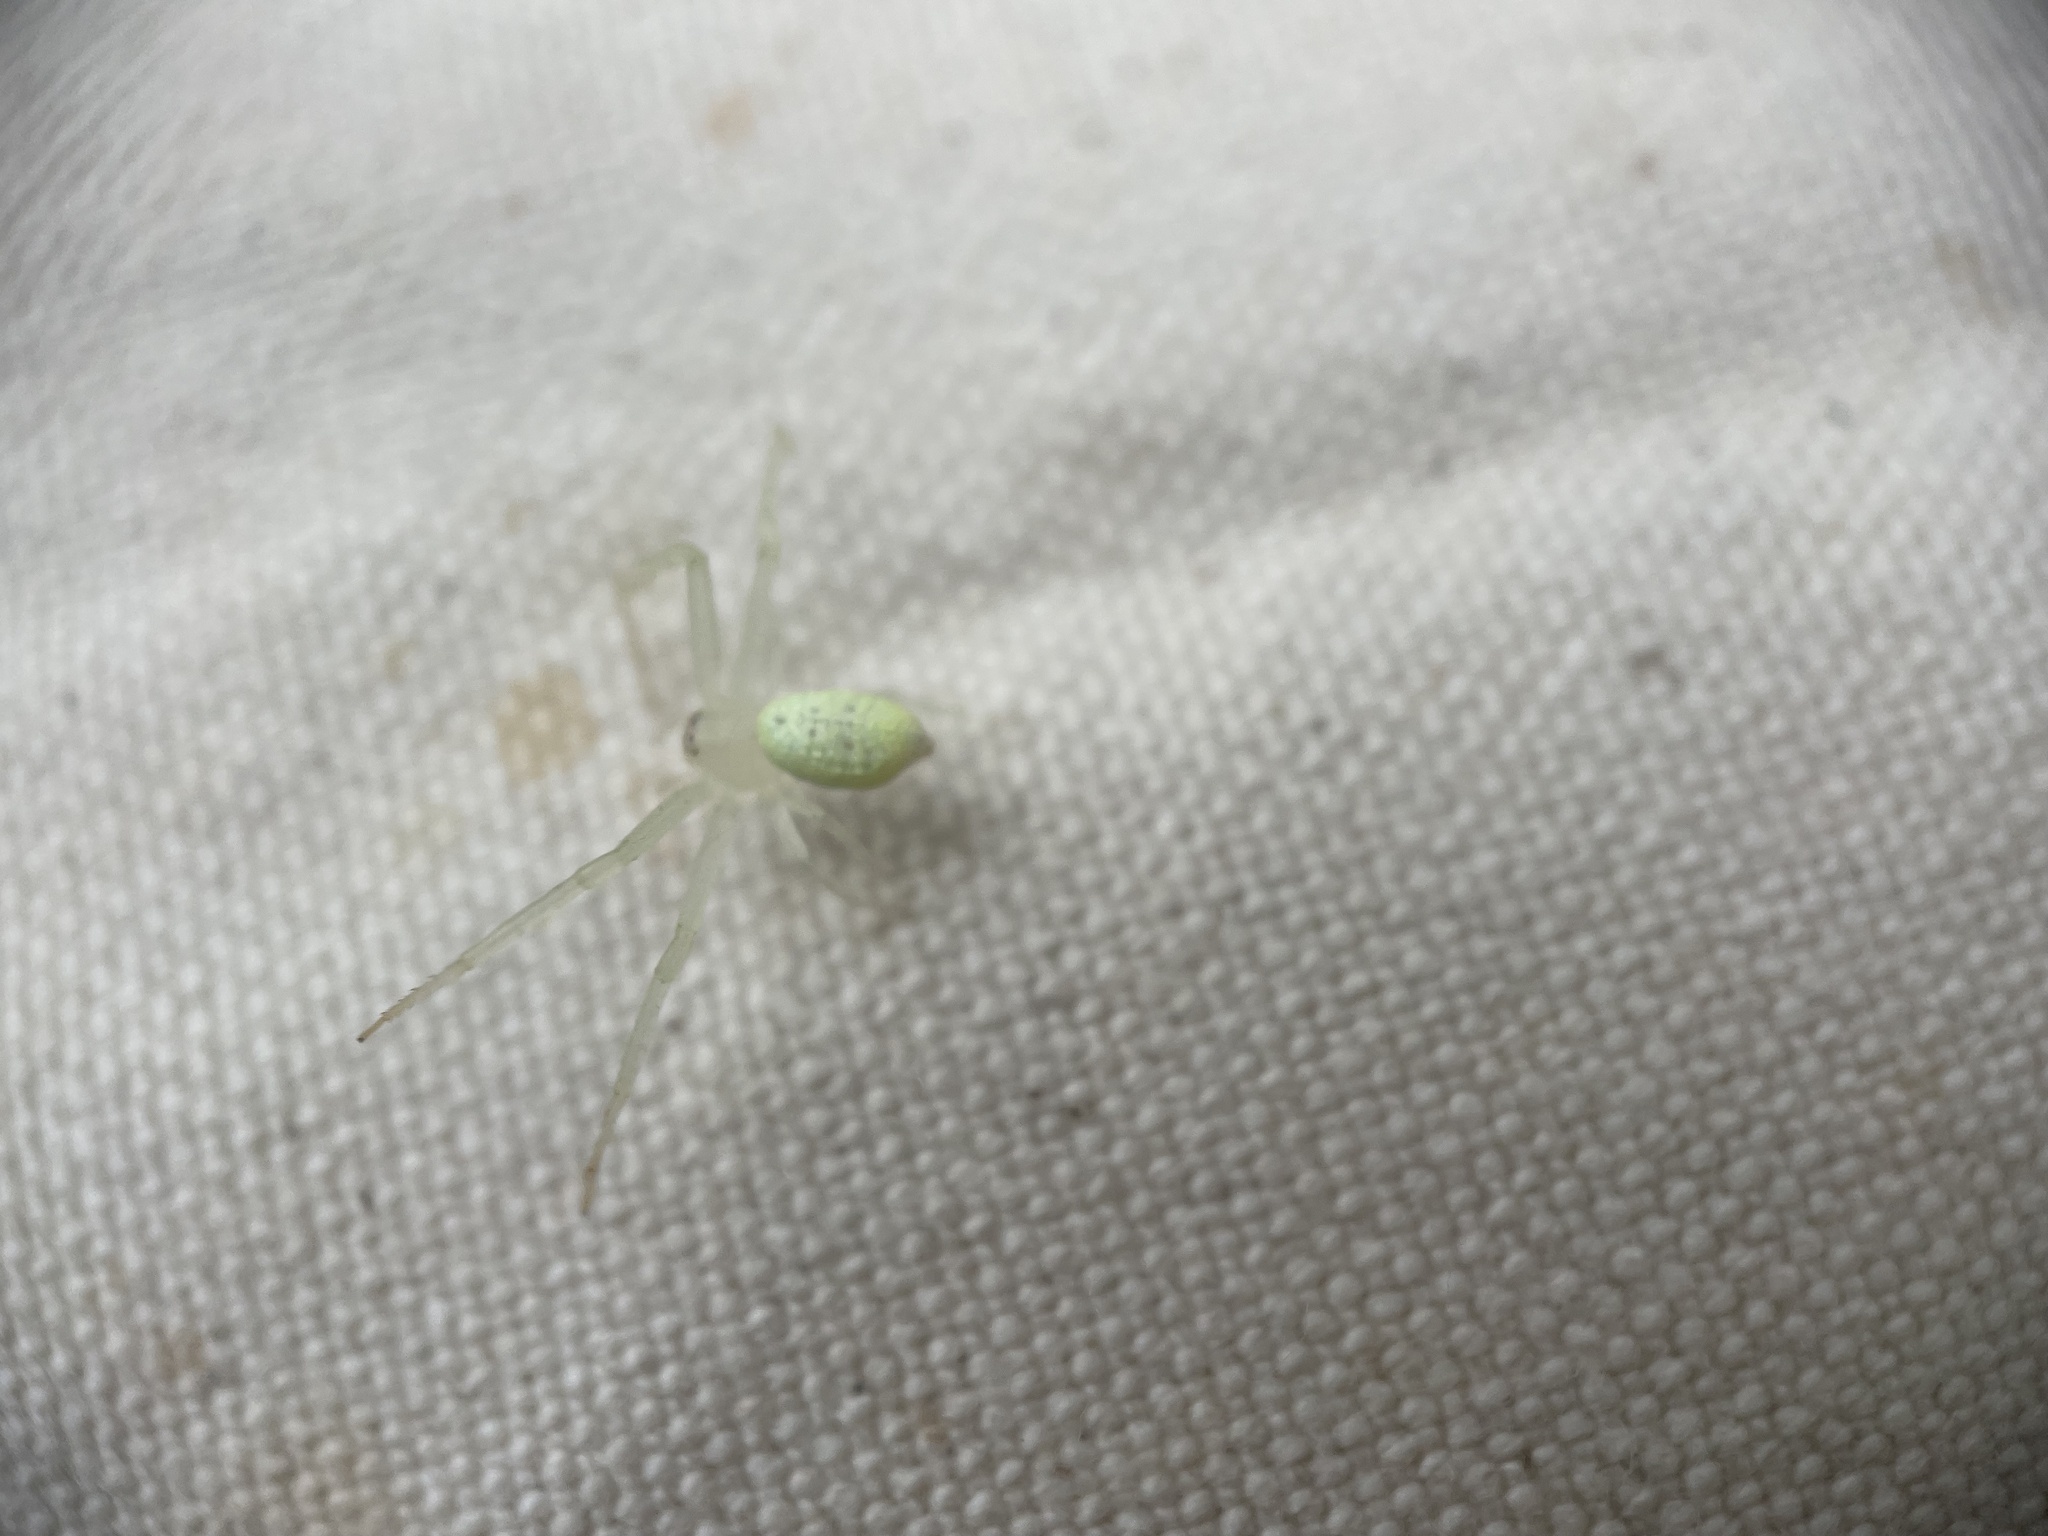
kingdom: Animalia
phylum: Arthropoda
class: Arachnida
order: Araneae
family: Thomisidae
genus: Misumessus
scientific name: Misumessus oblongus
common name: American green crab spider
